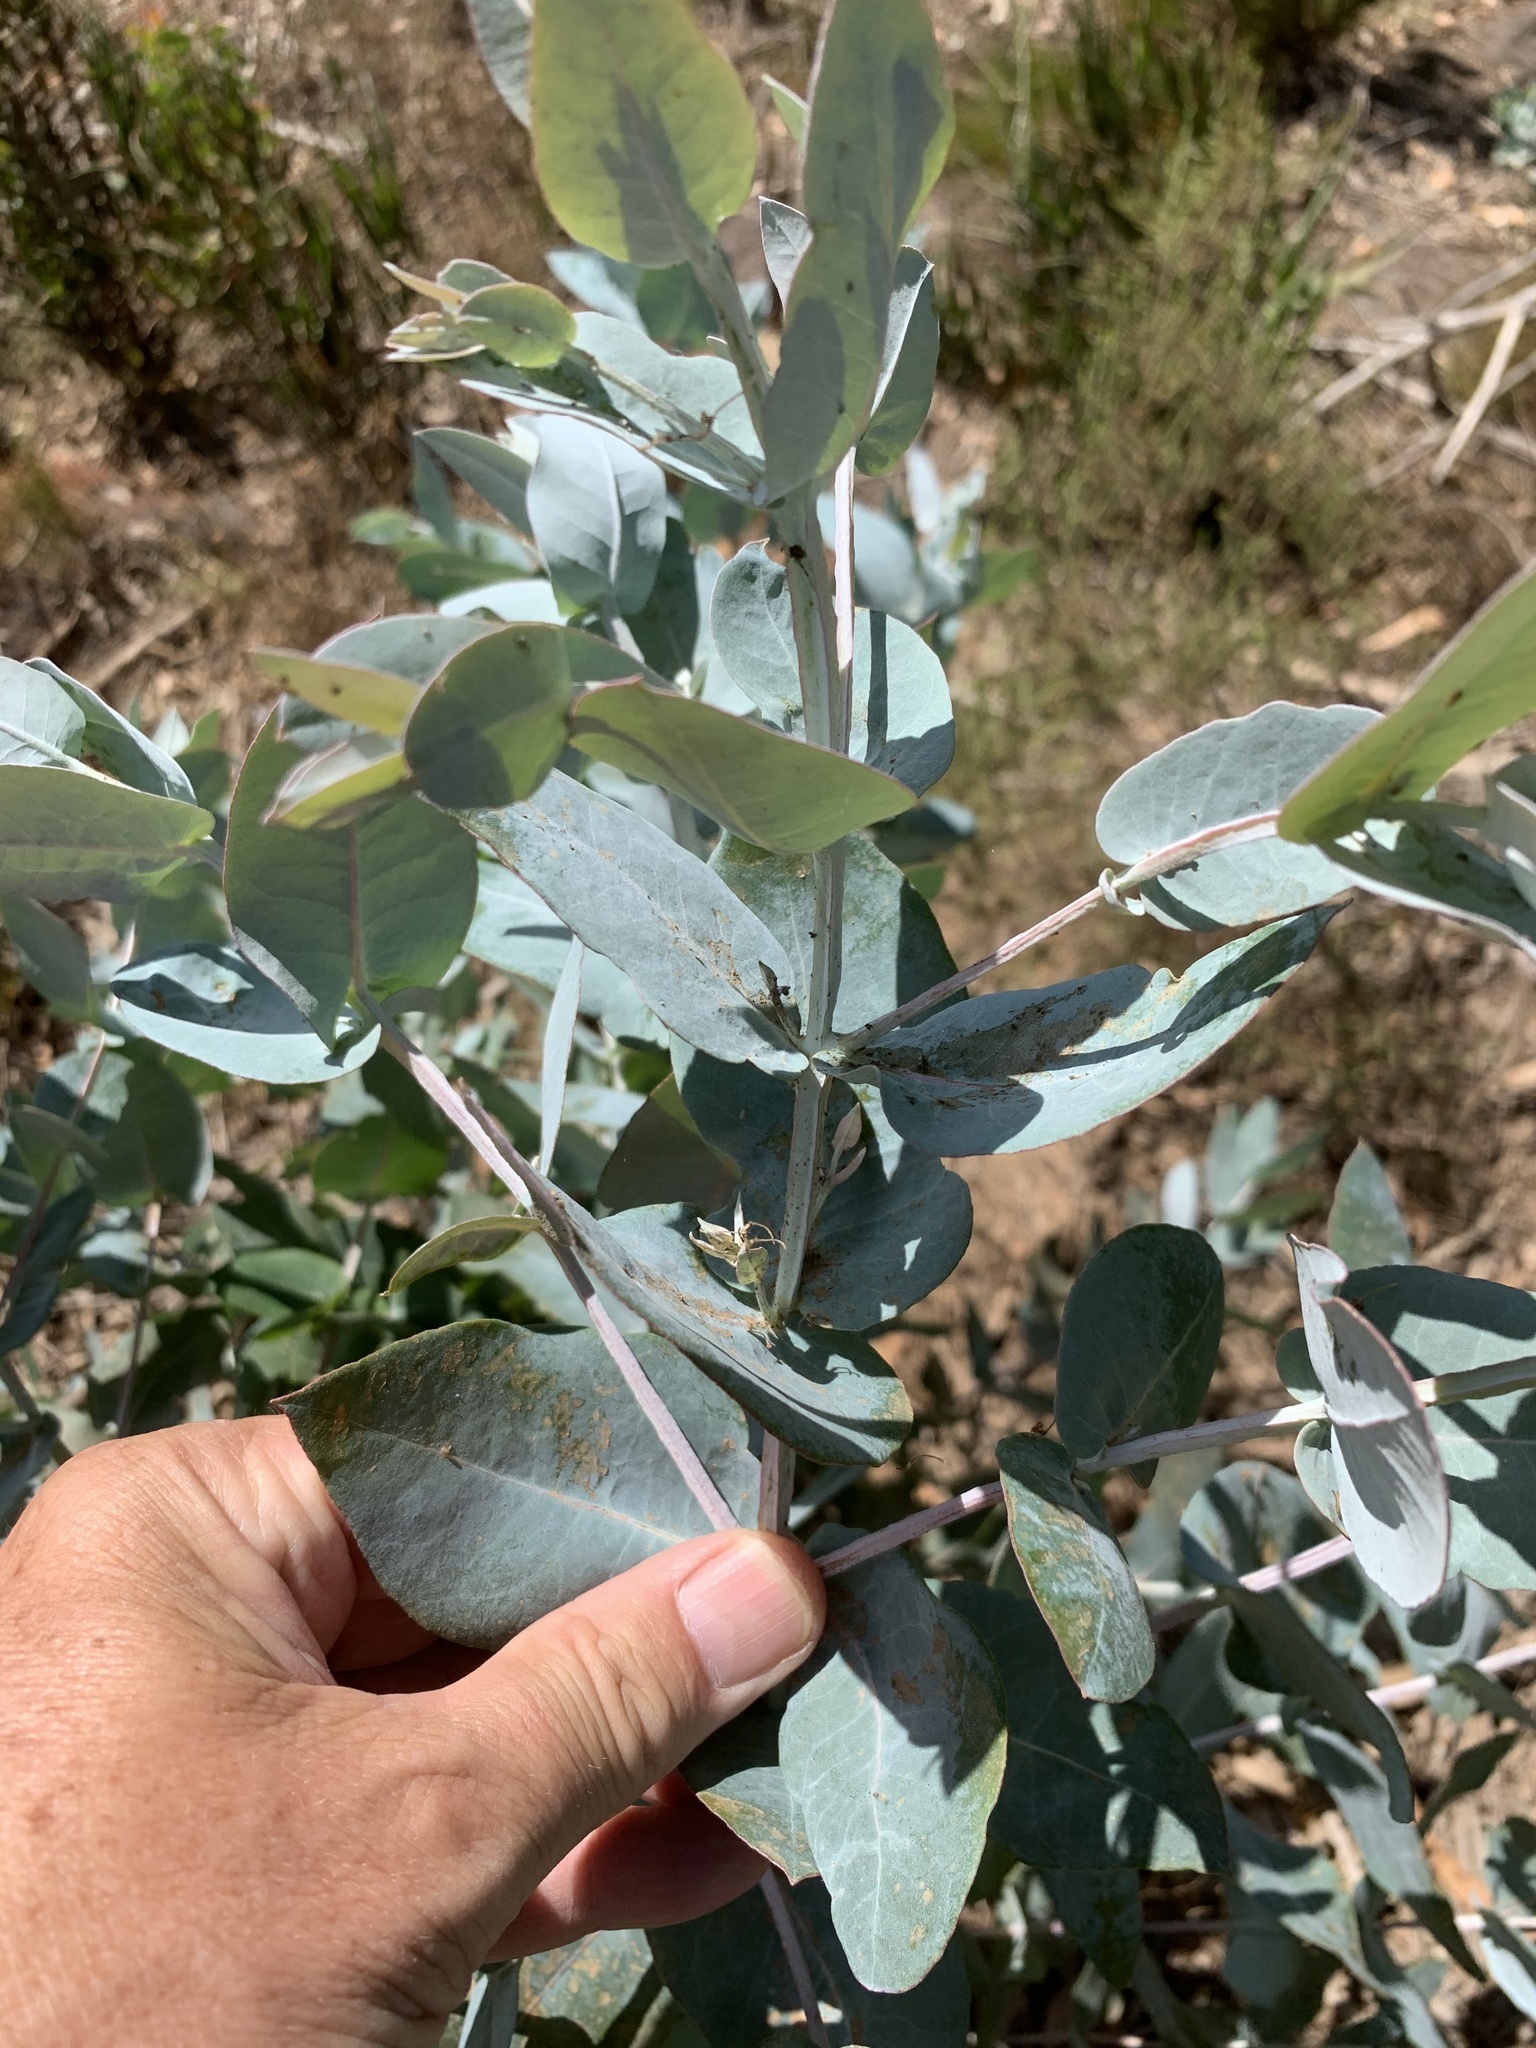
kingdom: Plantae
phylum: Tracheophyta
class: Magnoliopsida
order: Myrtales
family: Myrtaceae
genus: Eucalyptus
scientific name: Eucalyptus cinerea
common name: Argyle apple
